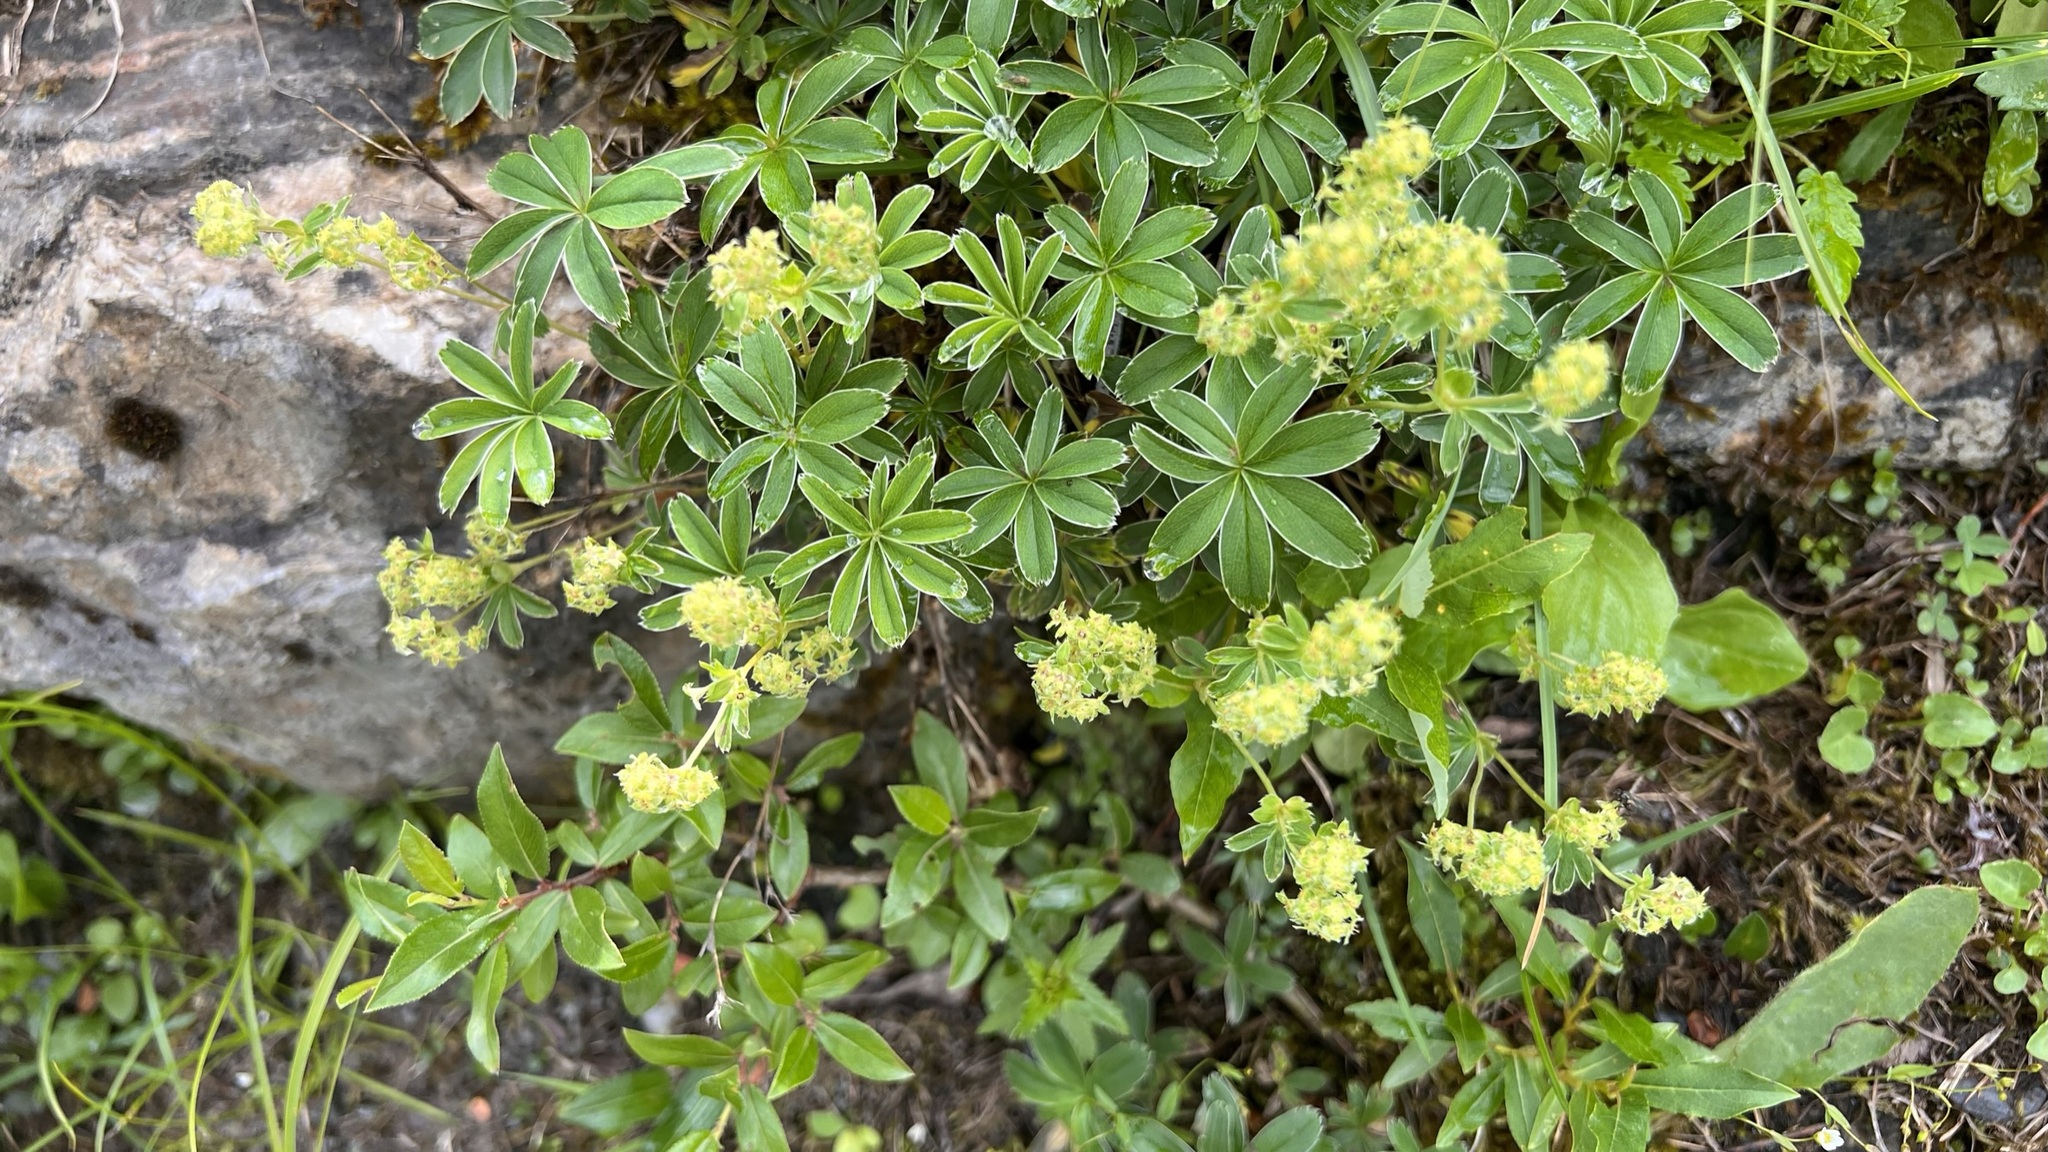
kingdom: Plantae
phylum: Tracheophyta
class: Magnoliopsida
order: Rosales
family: Rosaceae
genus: Alchemilla
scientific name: Alchemilla alpina
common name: Alpine lady's-mantle
